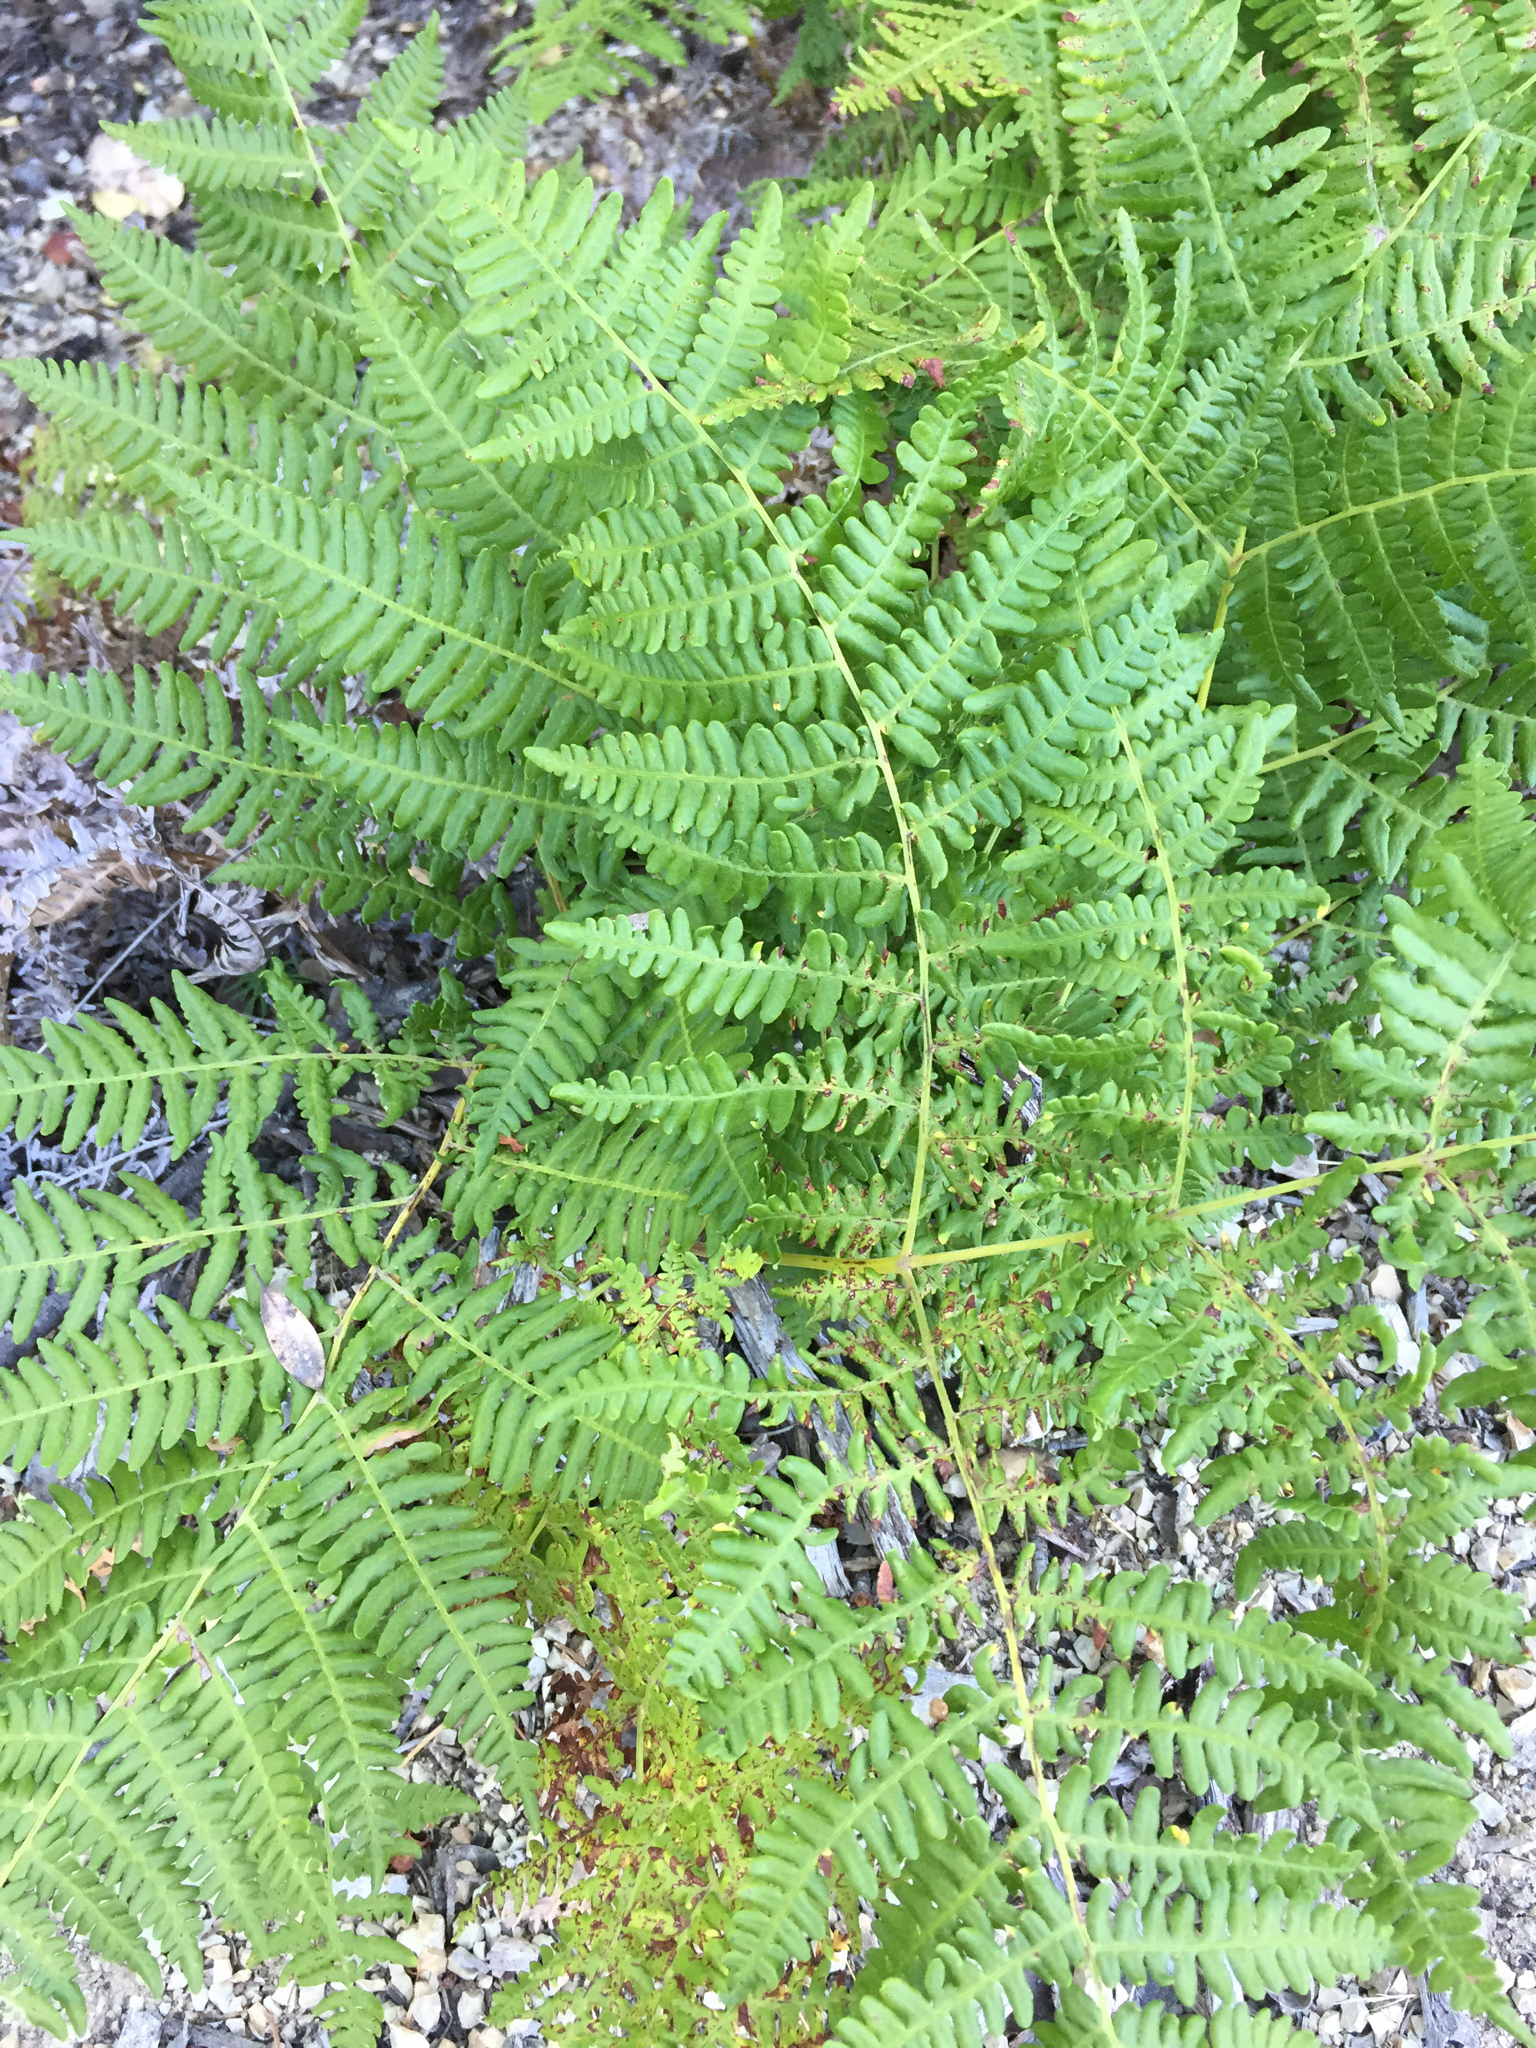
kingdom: Plantae
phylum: Tracheophyta
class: Polypodiopsida
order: Polypodiales
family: Dennstaedtiaceae
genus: Pteridium
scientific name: Pteridium aquilinum
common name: Bracken
